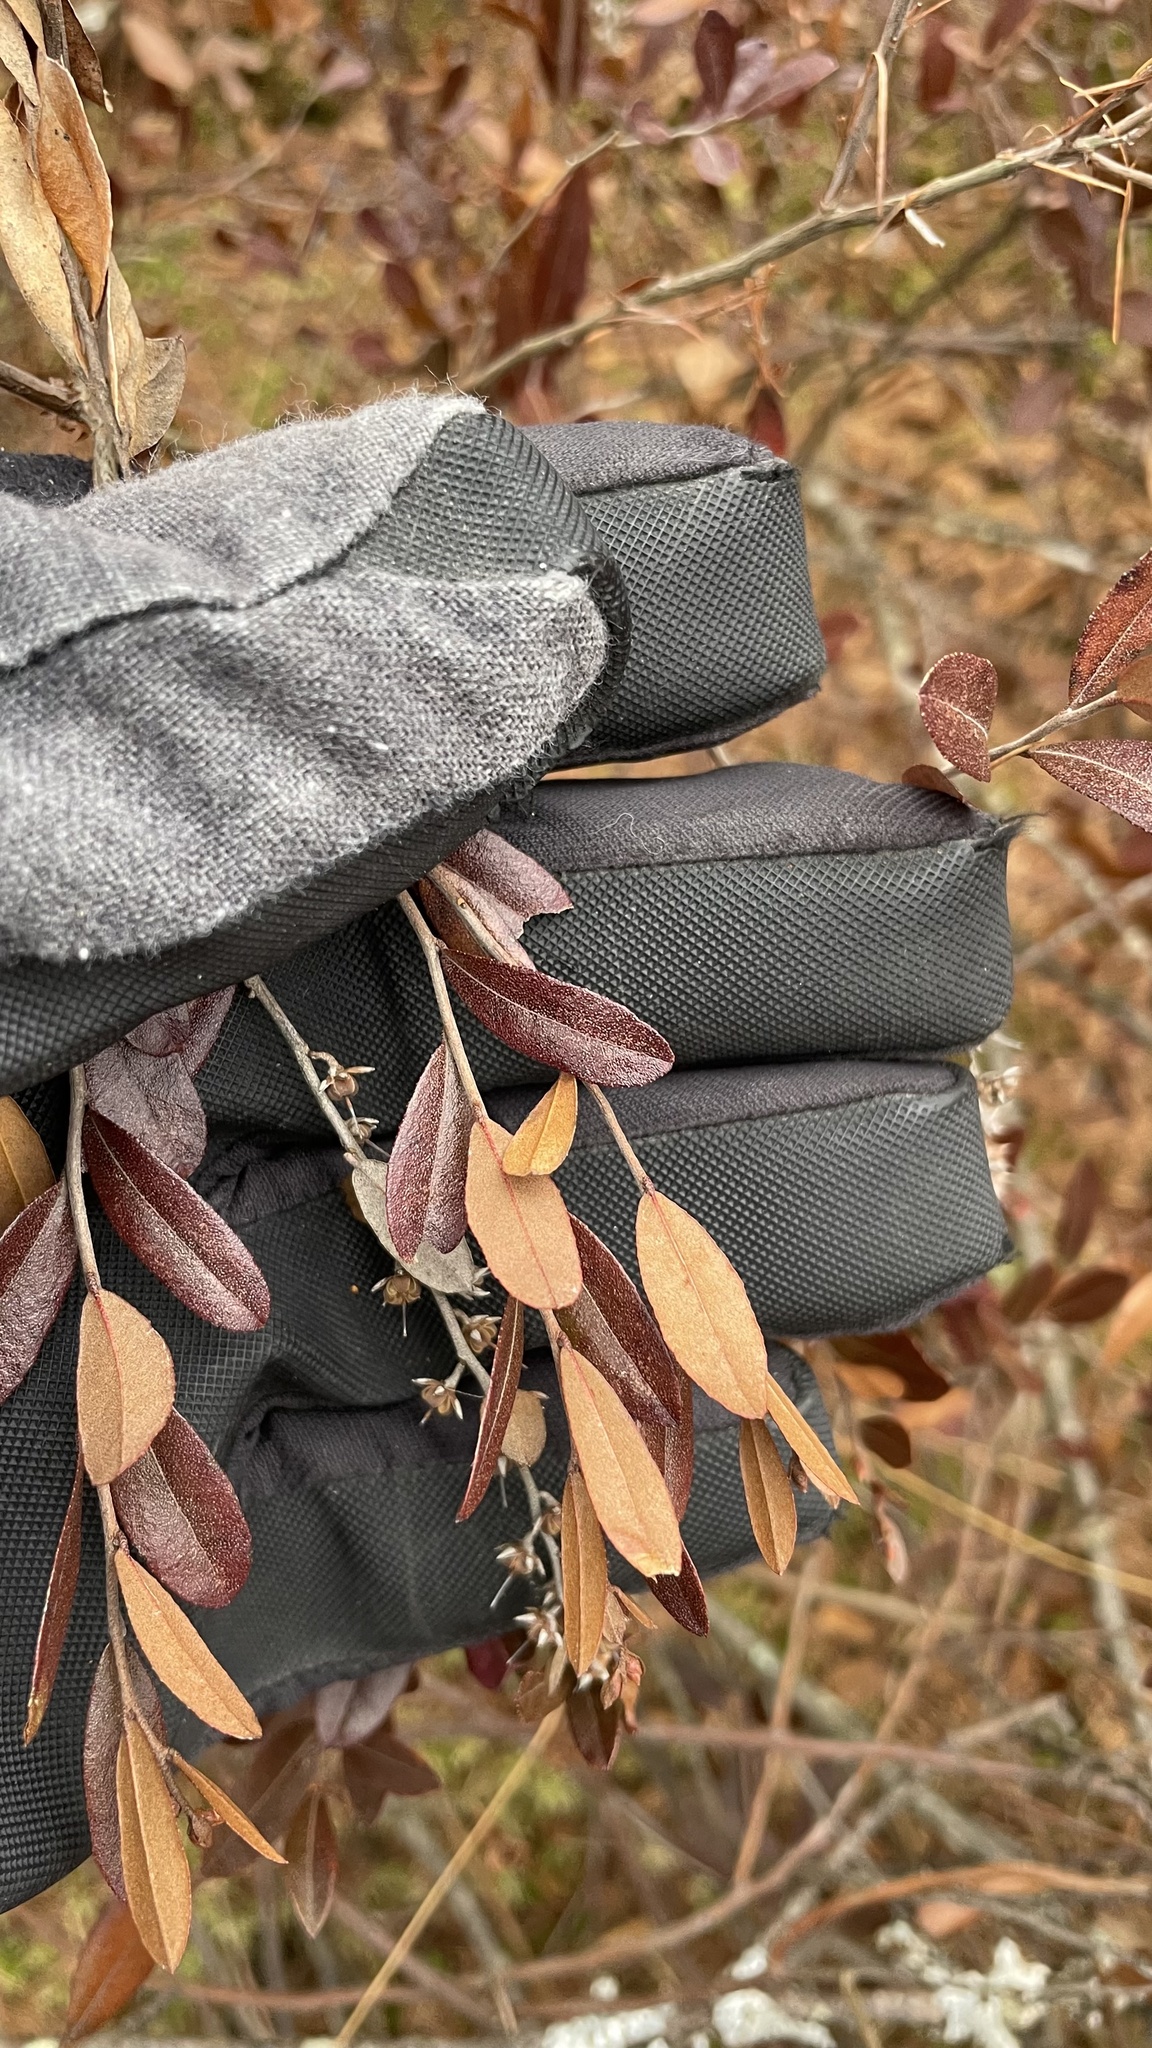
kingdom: Plantae
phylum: Tracheophyta
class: Magnoliopsida
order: Ericales
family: Ericaceae
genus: Chamaedaphne
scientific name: Chamaedaphne calyculata
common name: Leatherleaf
